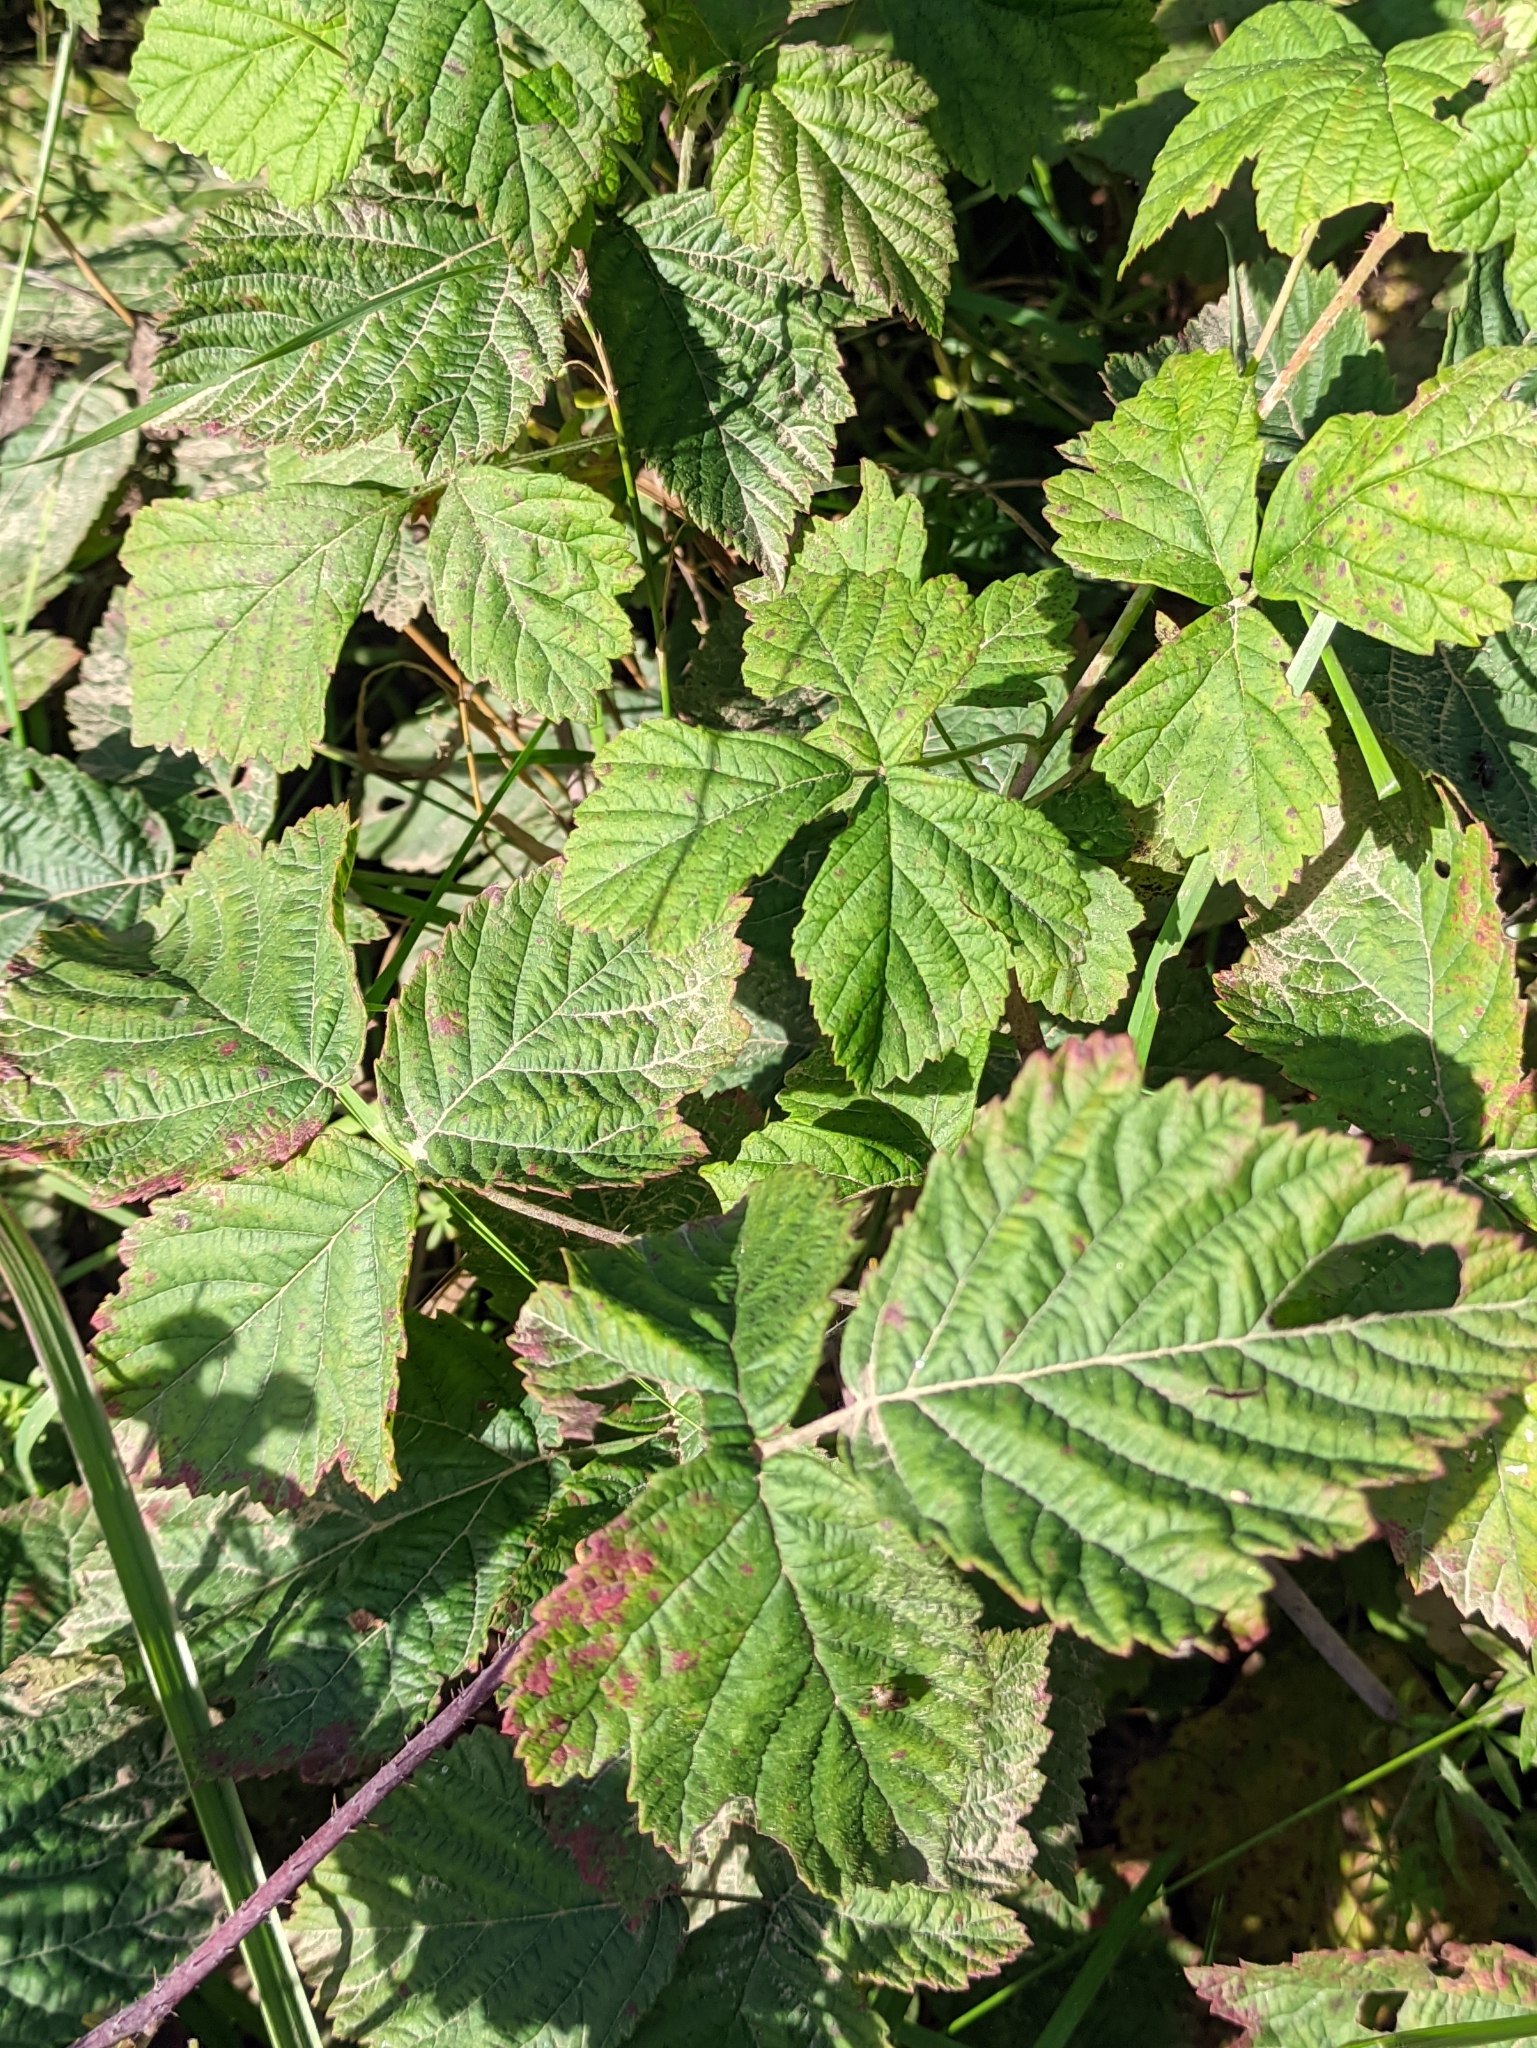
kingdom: Plantae
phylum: Tracheophyta
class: Magnoliopsida
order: Rosales
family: Rosaceae
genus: Rubus
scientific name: Rubus caesius
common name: Dewberry
